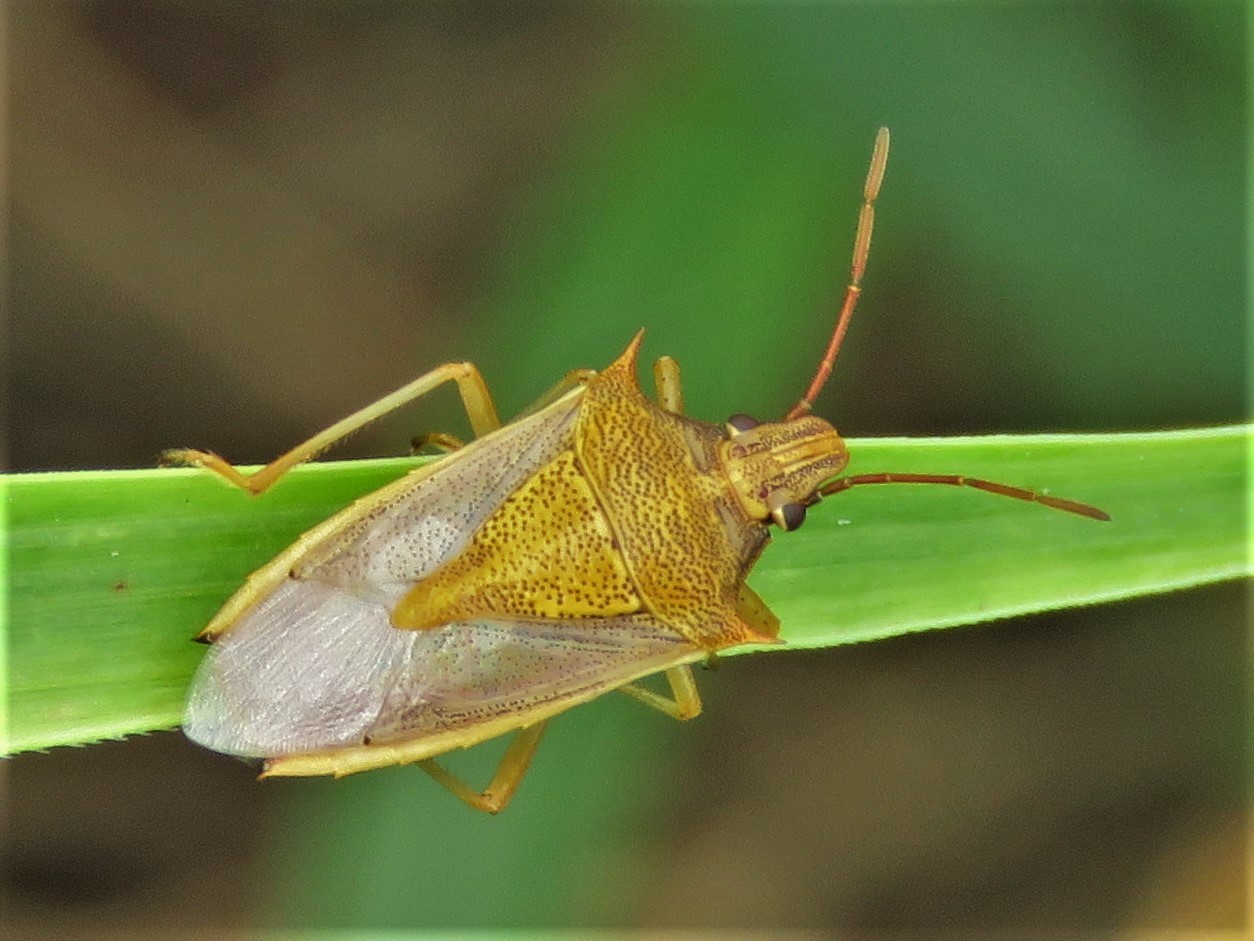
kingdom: Animalia
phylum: Arthropoda
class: Insecta
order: Hemiptera
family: Pentatomidae
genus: Oebalus
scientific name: Oebalus pugnax
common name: Rice stink bug
